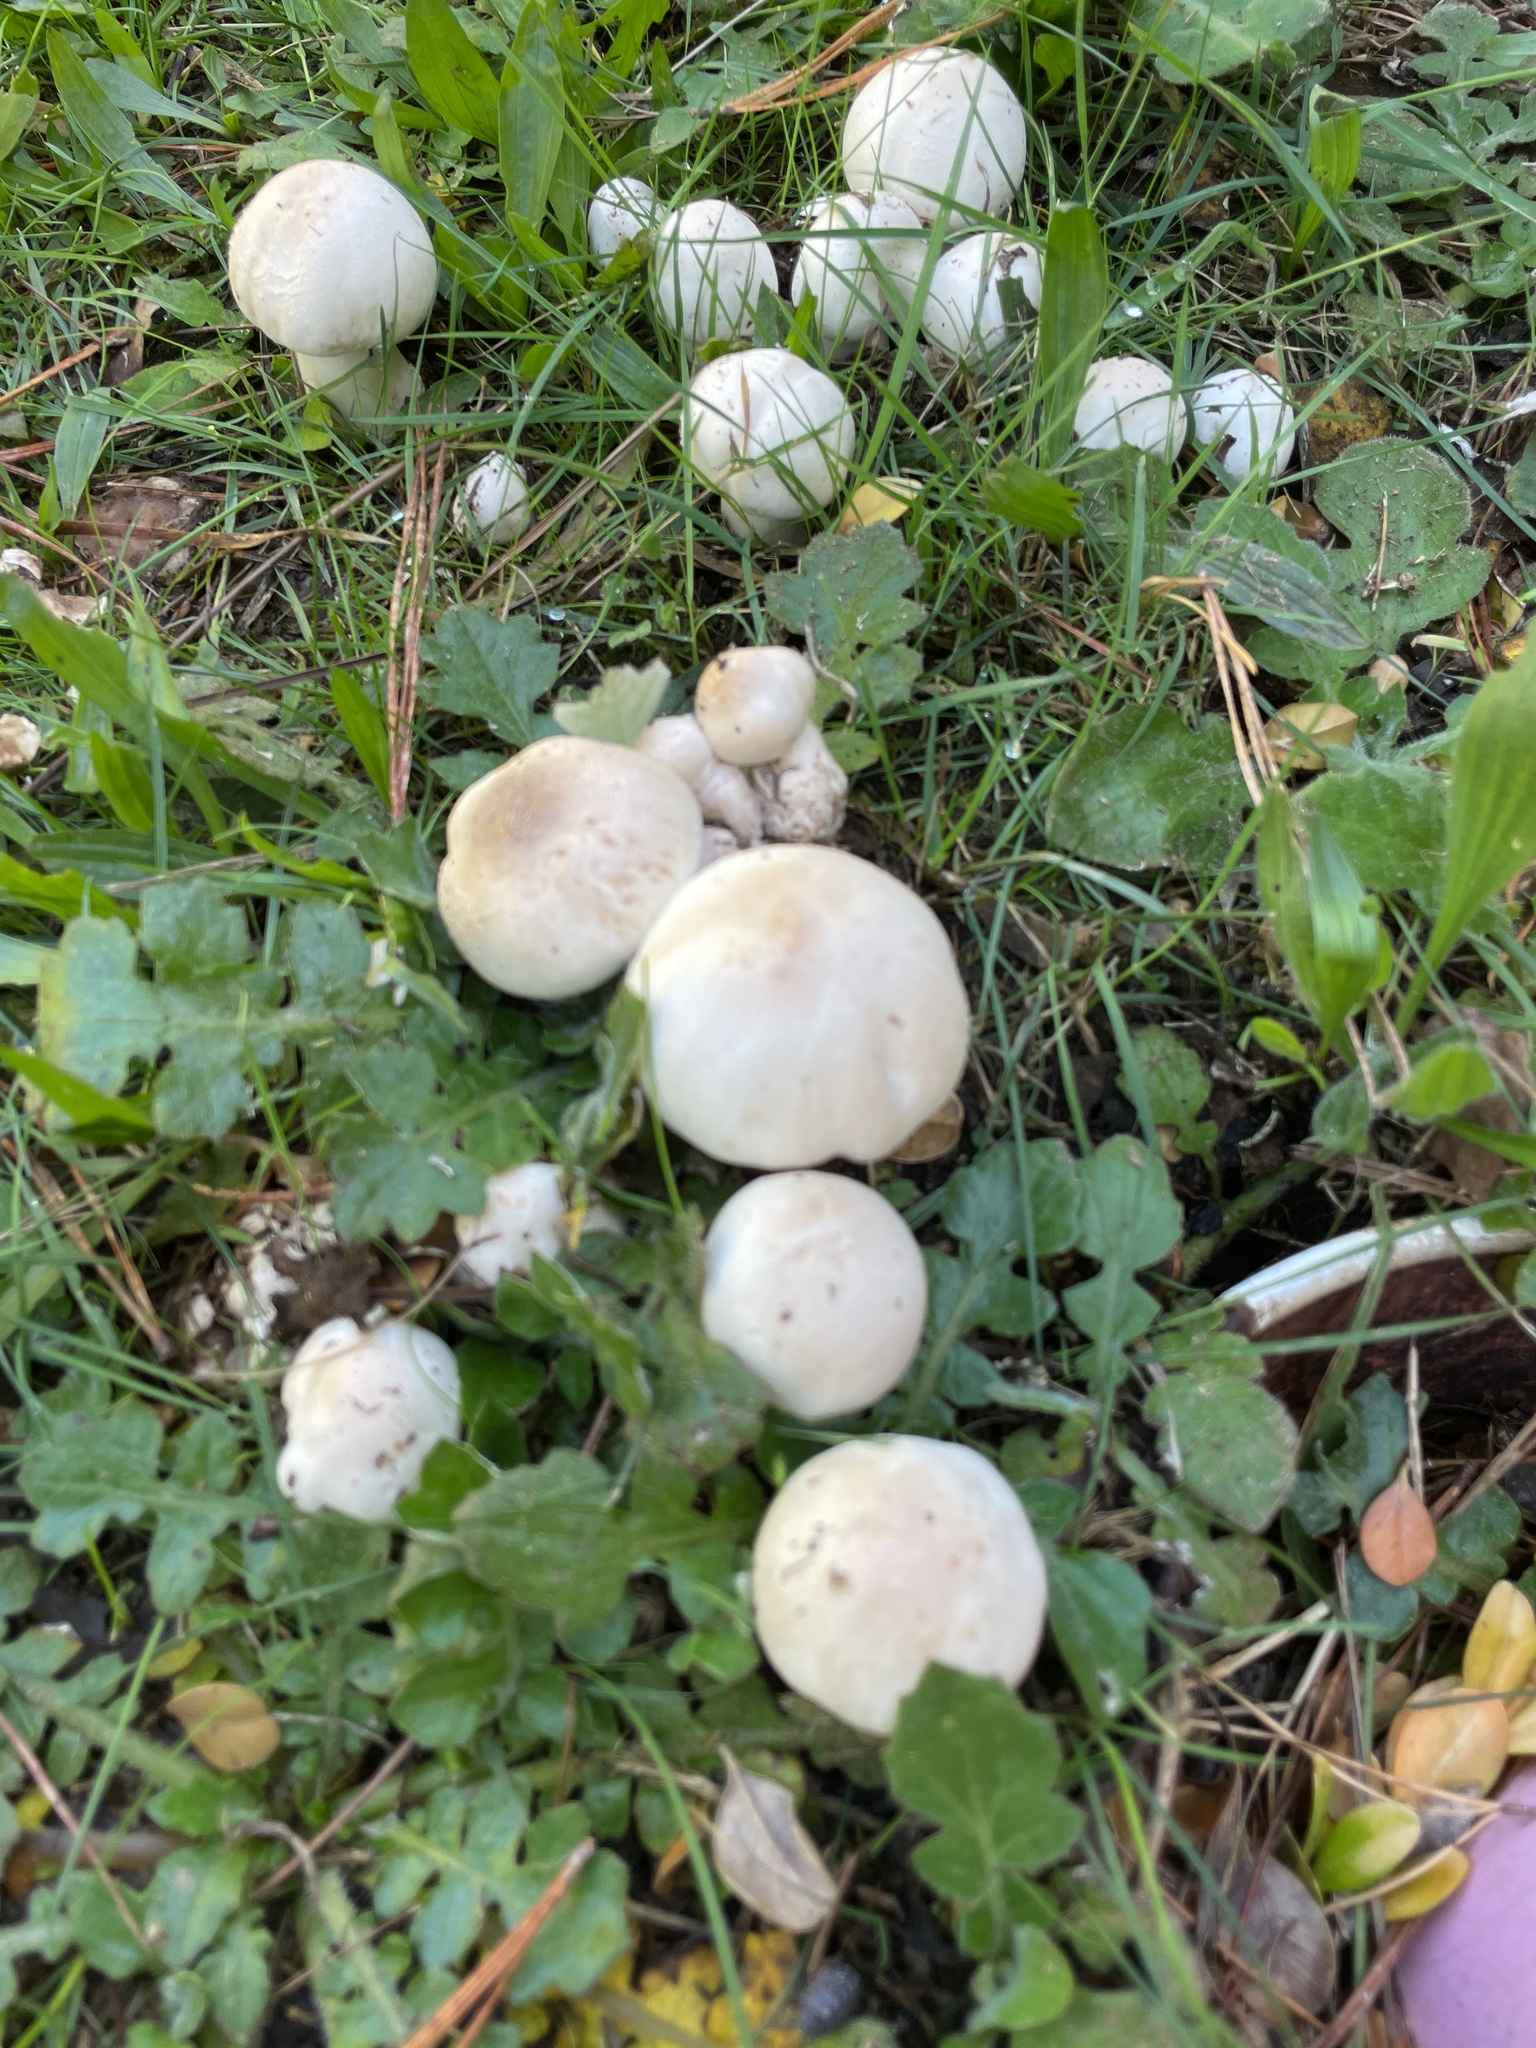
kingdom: Fungi
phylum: Basidiomycota
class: Agaricomycetes
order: Agaricales
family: Agaricaceae
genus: Agaricus
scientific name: Agaricus xanthodermus
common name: Yellow stainer
